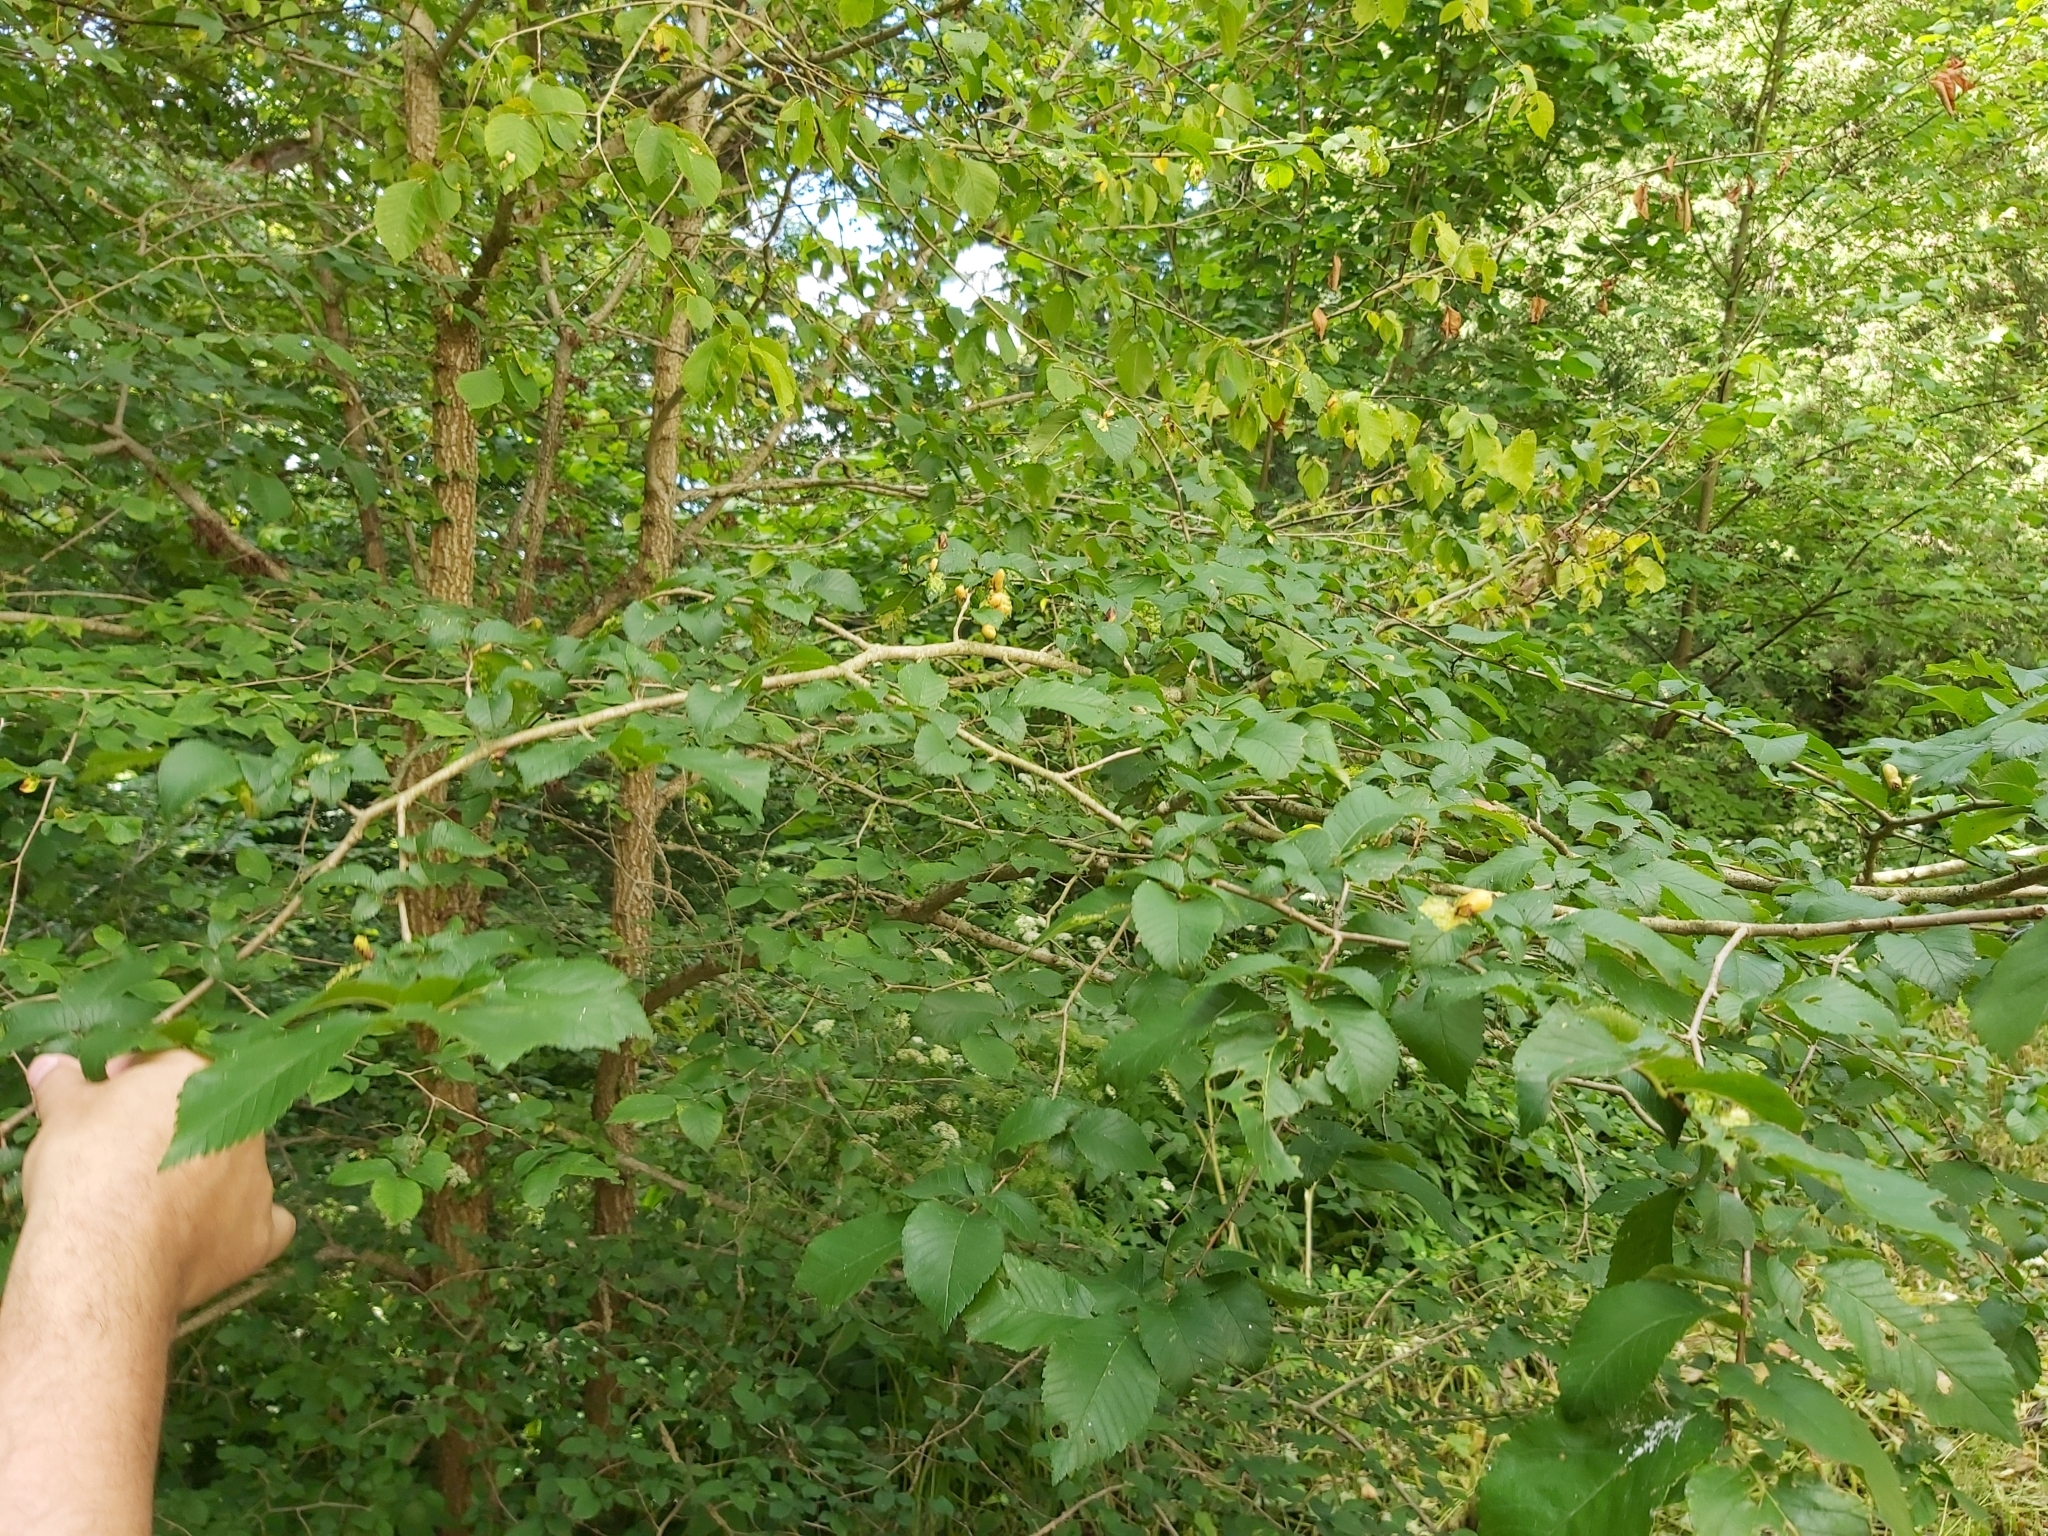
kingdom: Plantae
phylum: Tracheophyta
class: Magnoliopsida
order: Rosales
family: Ulmaceae
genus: Ulmus
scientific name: Ulmus minor
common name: Small-leaved elm
